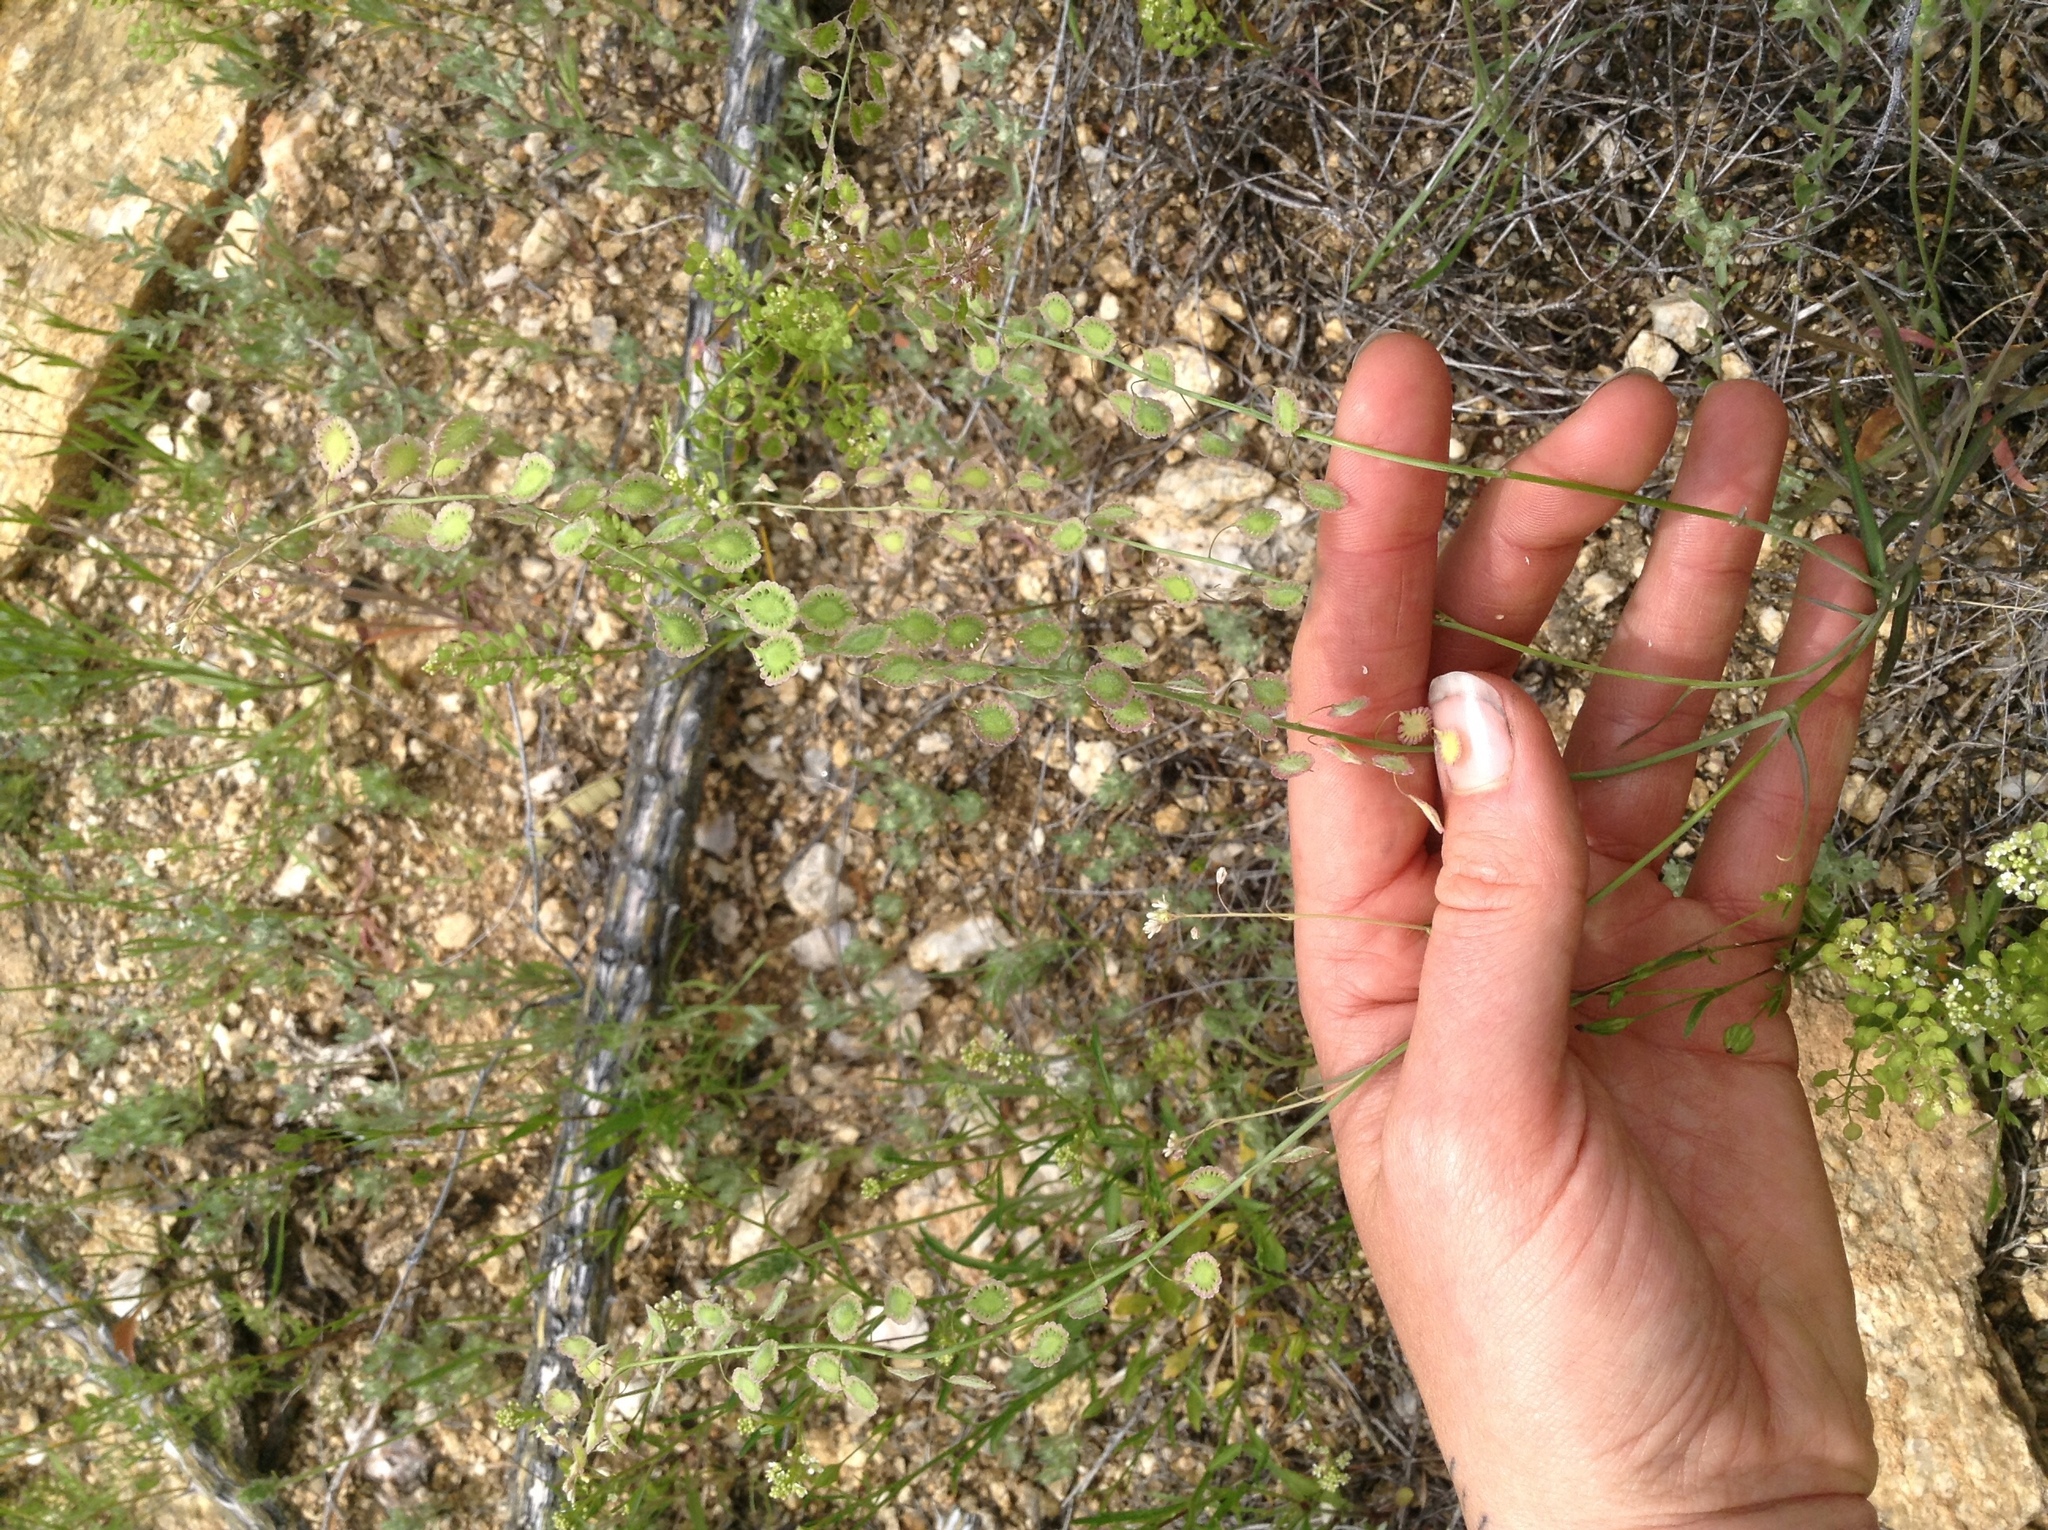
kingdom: Plantae
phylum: Tracheophyta
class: Magnoliopsida
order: Brassicales
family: Brassicaceae
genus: Thysanocarpus
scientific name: Thysanocarpus curvipes
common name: Sand fringepod
